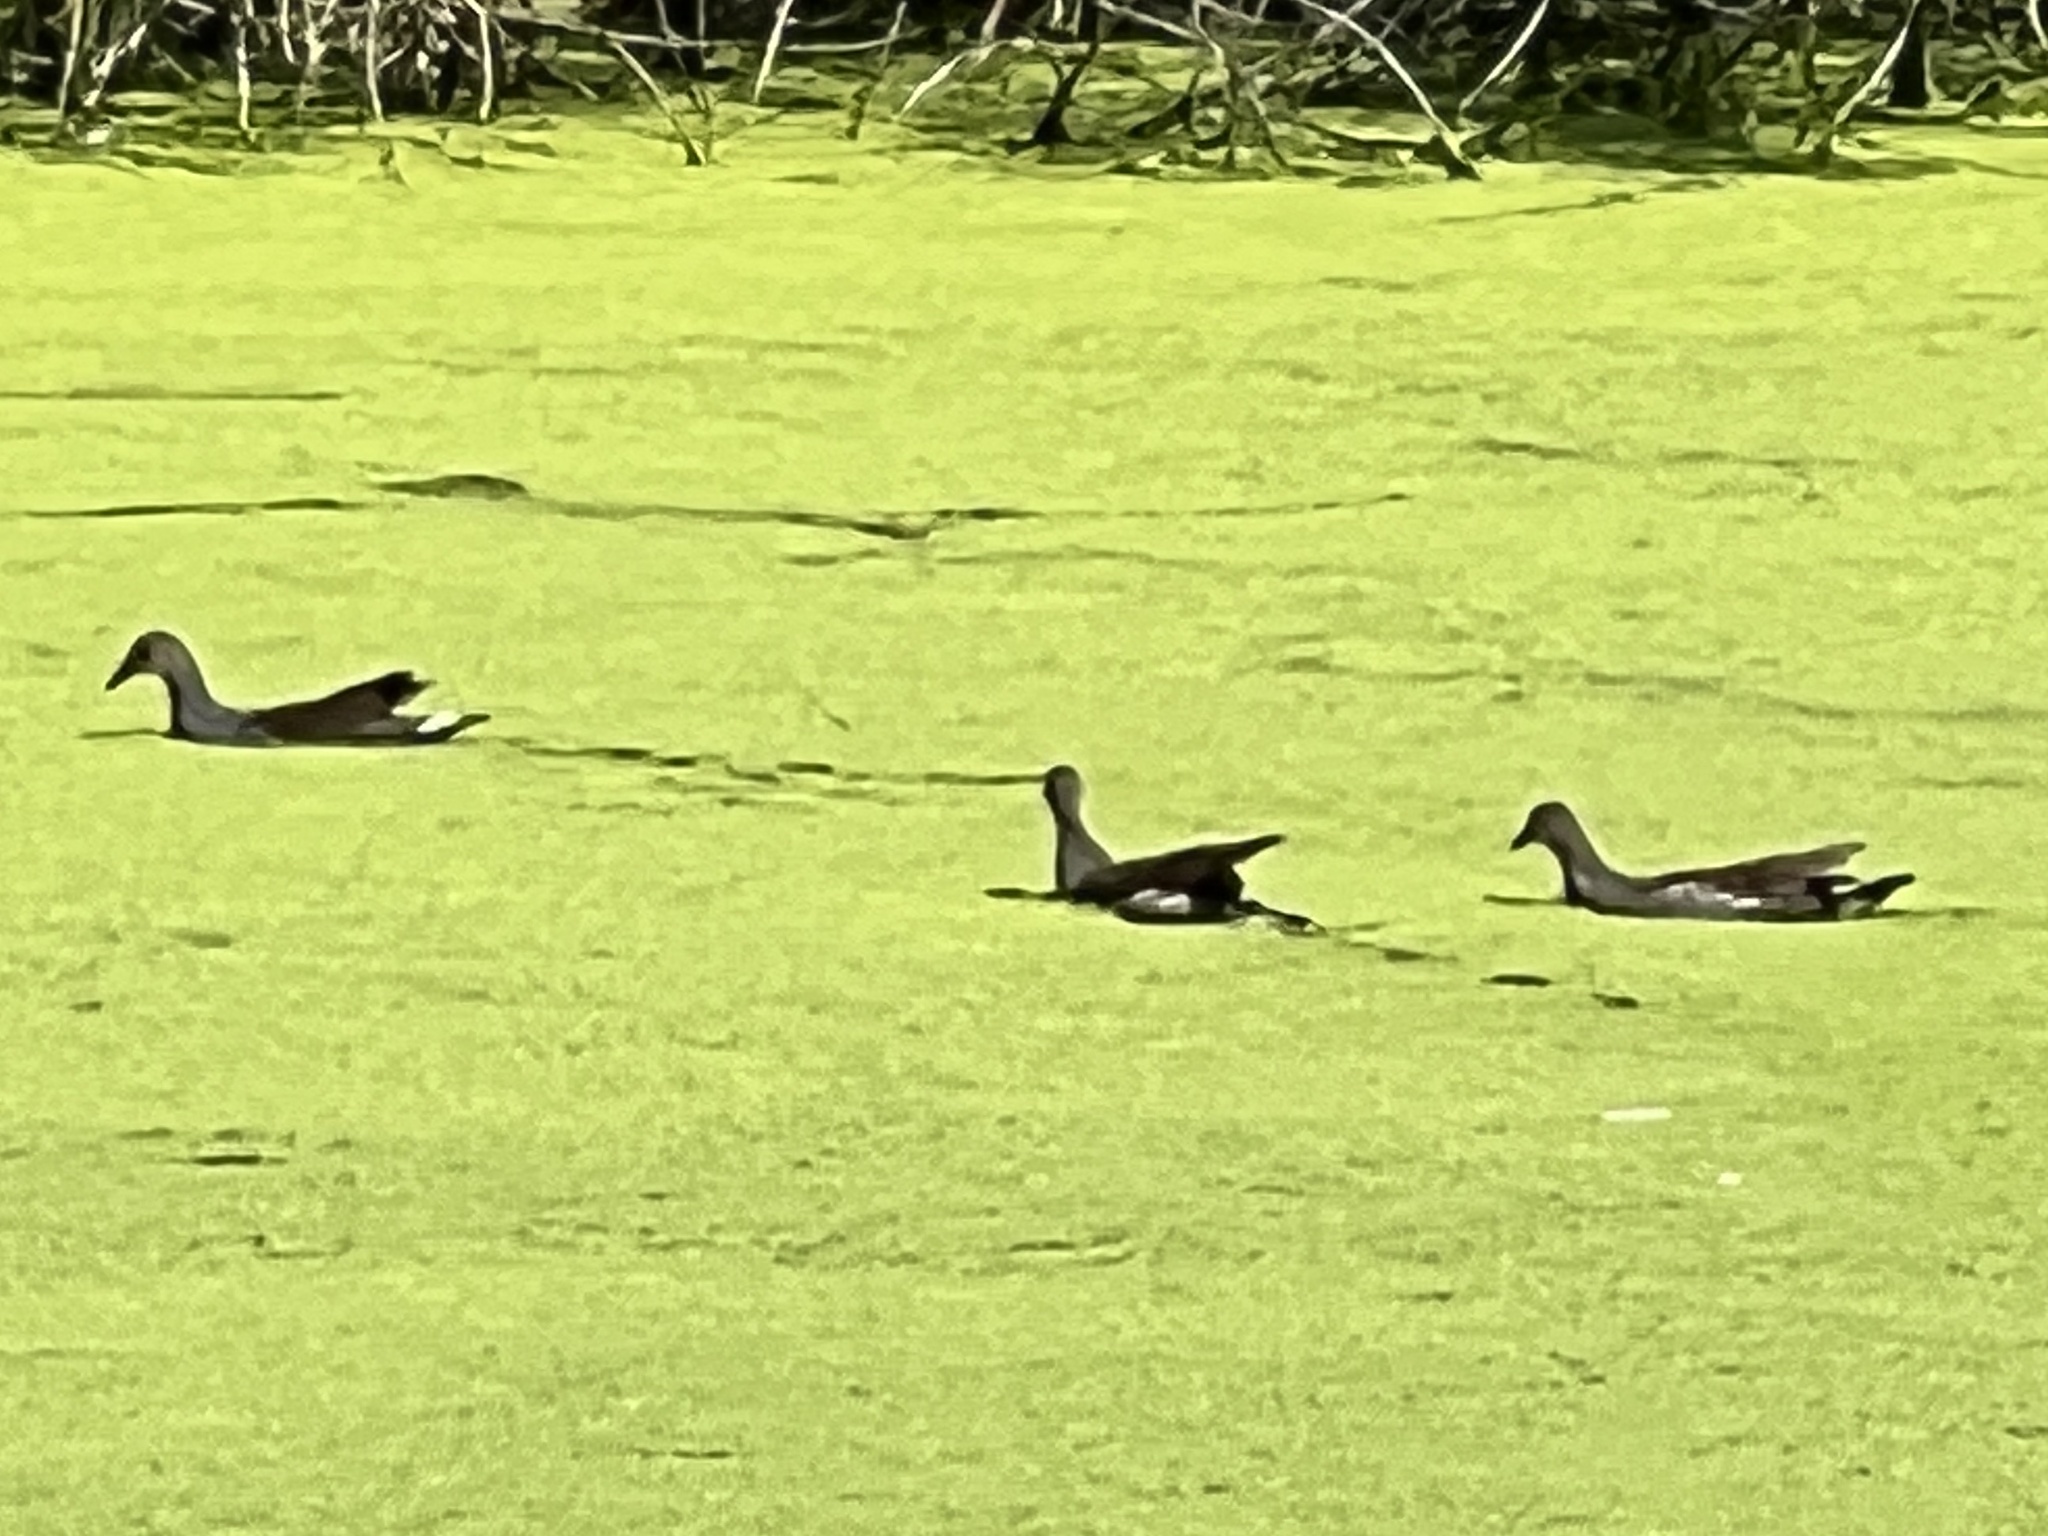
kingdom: Animalia
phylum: Chordata
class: Aves
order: Gruiformes
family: Rallidae
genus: Gallinula
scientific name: Gallinula chloropus
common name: Common moorhen
